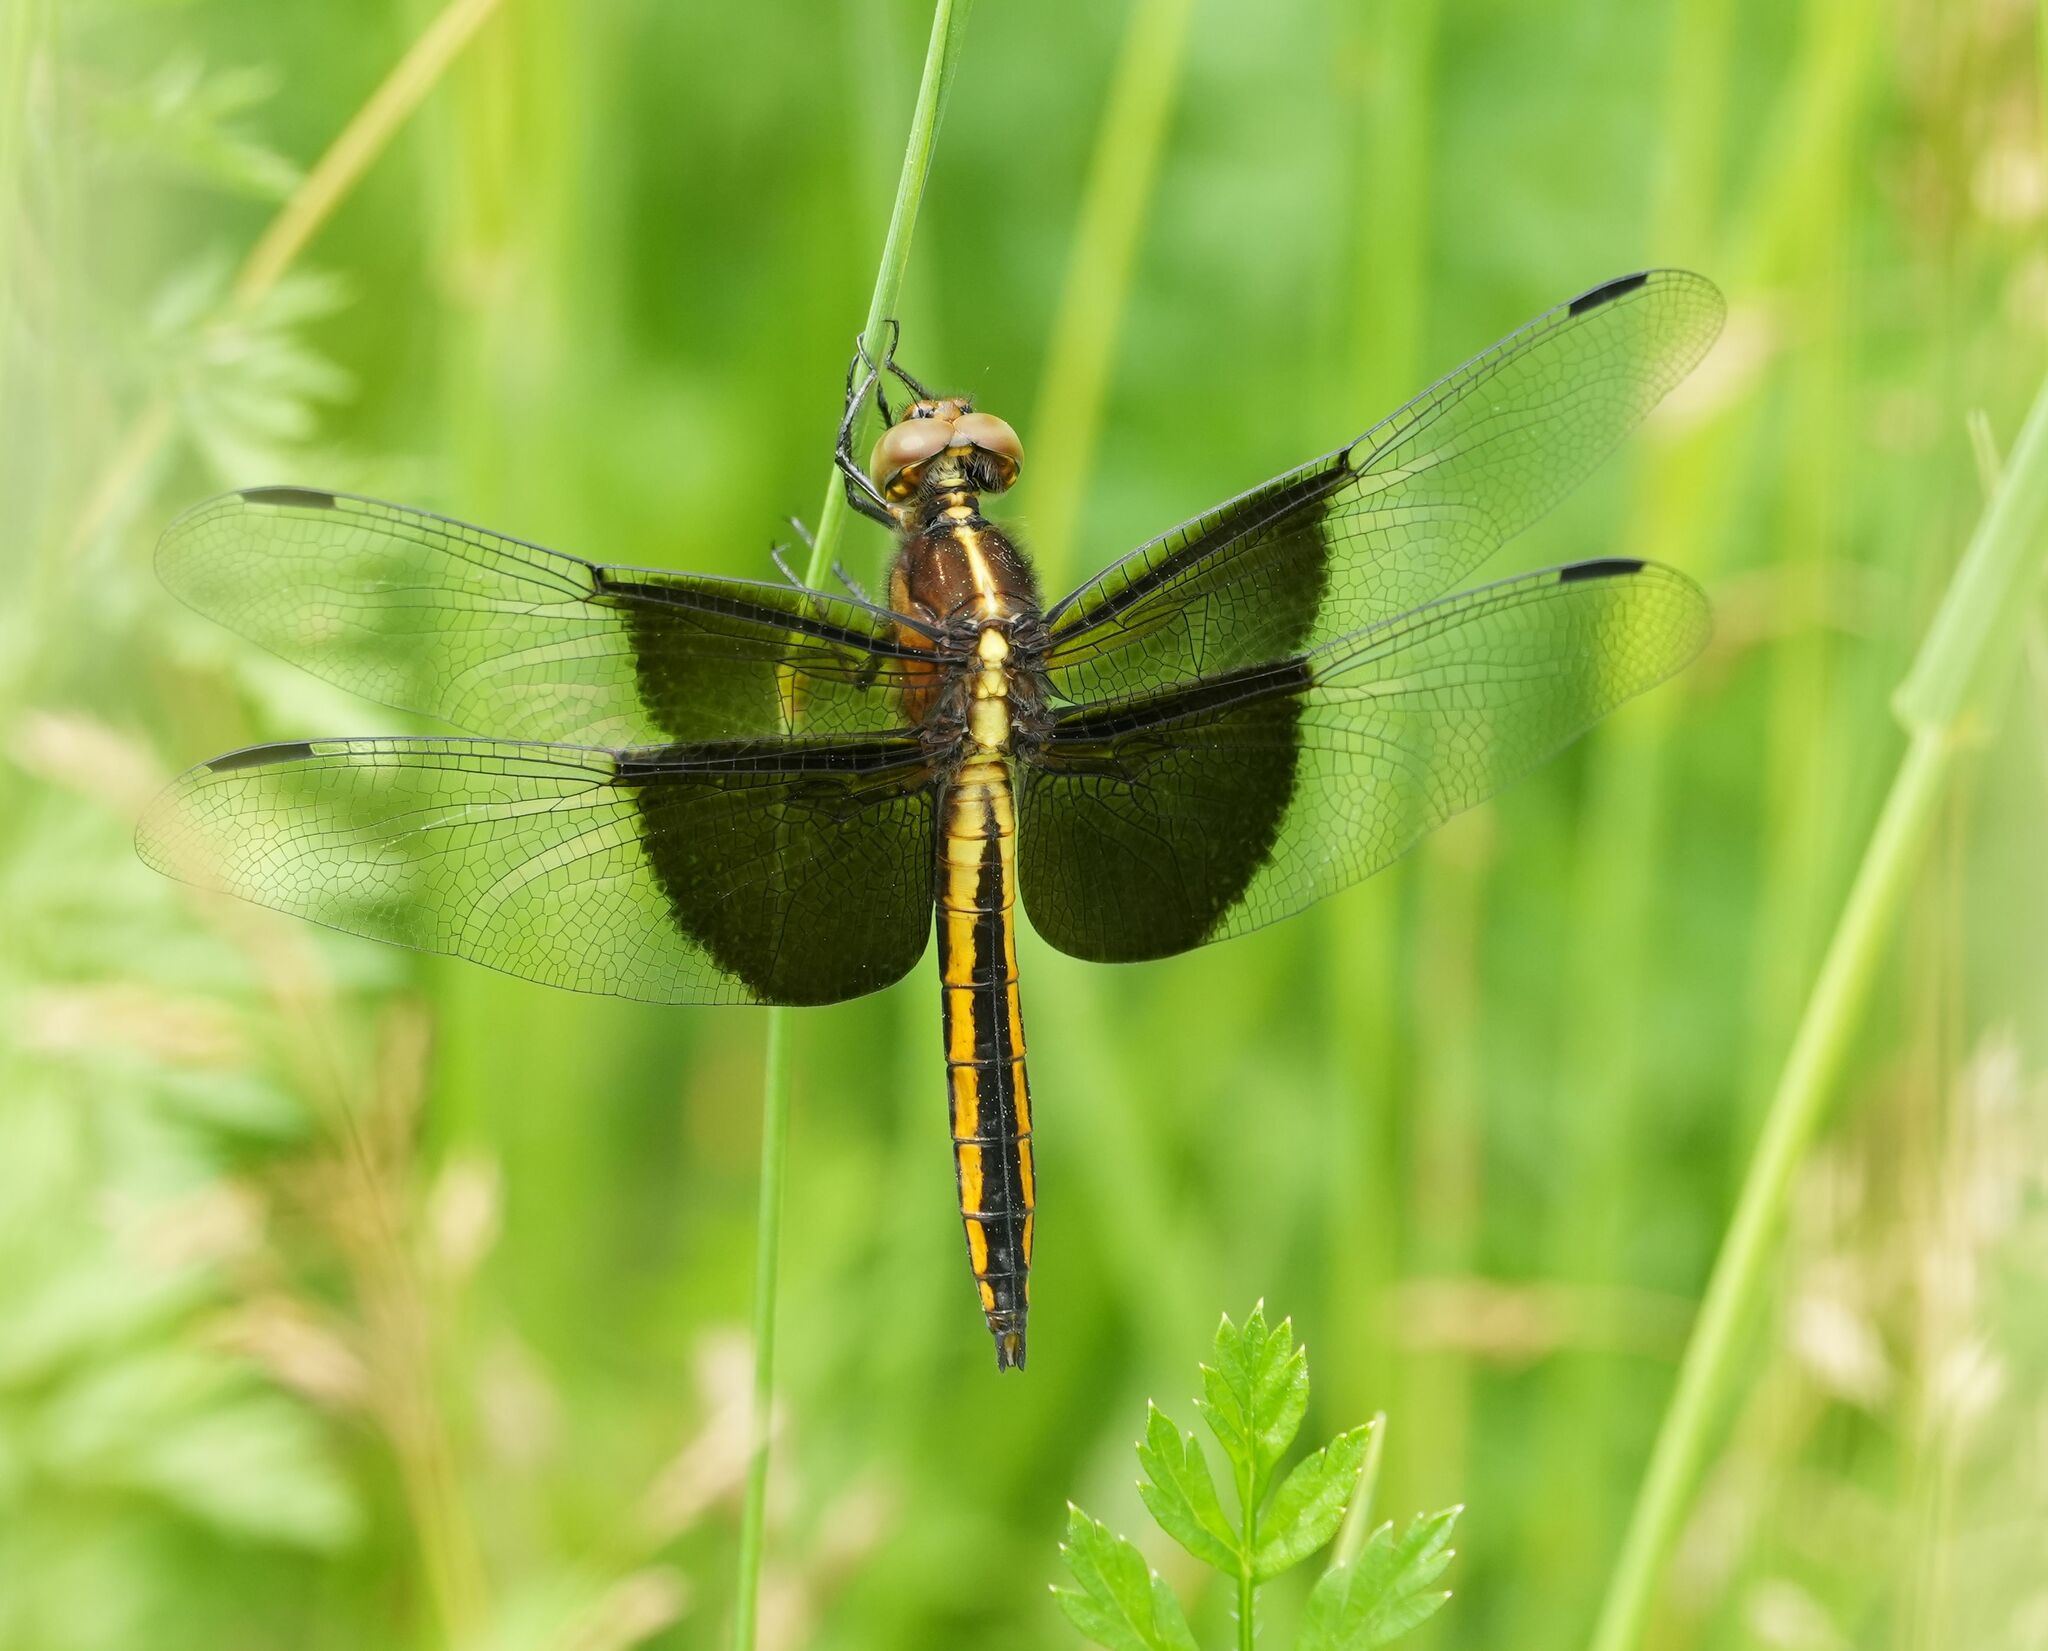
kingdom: Animalia
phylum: Arthropoda
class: Insecta
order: Odonata
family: Libellulidae
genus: Libellula
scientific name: Libellula luctuosa
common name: Widow skimmer
